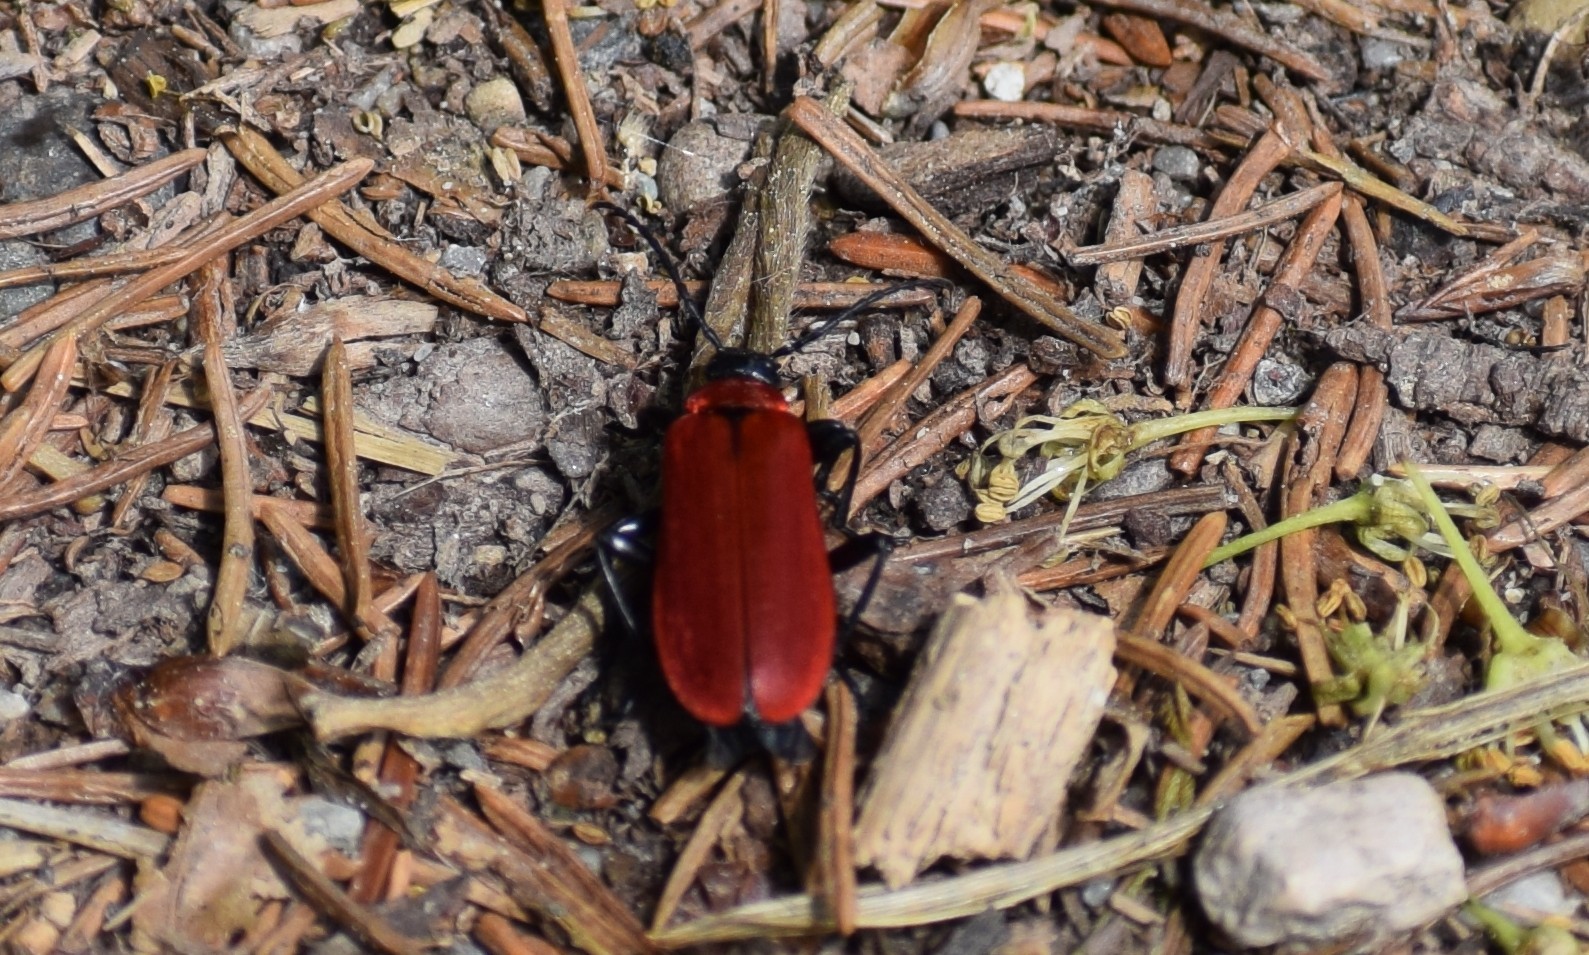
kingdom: Animalia
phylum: Arthropoda
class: Insecta
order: Coleoptera
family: Pyrochroidae
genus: Pyrochroa
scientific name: Pyrochroa coccinea
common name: Black-headed cardinal beetle
